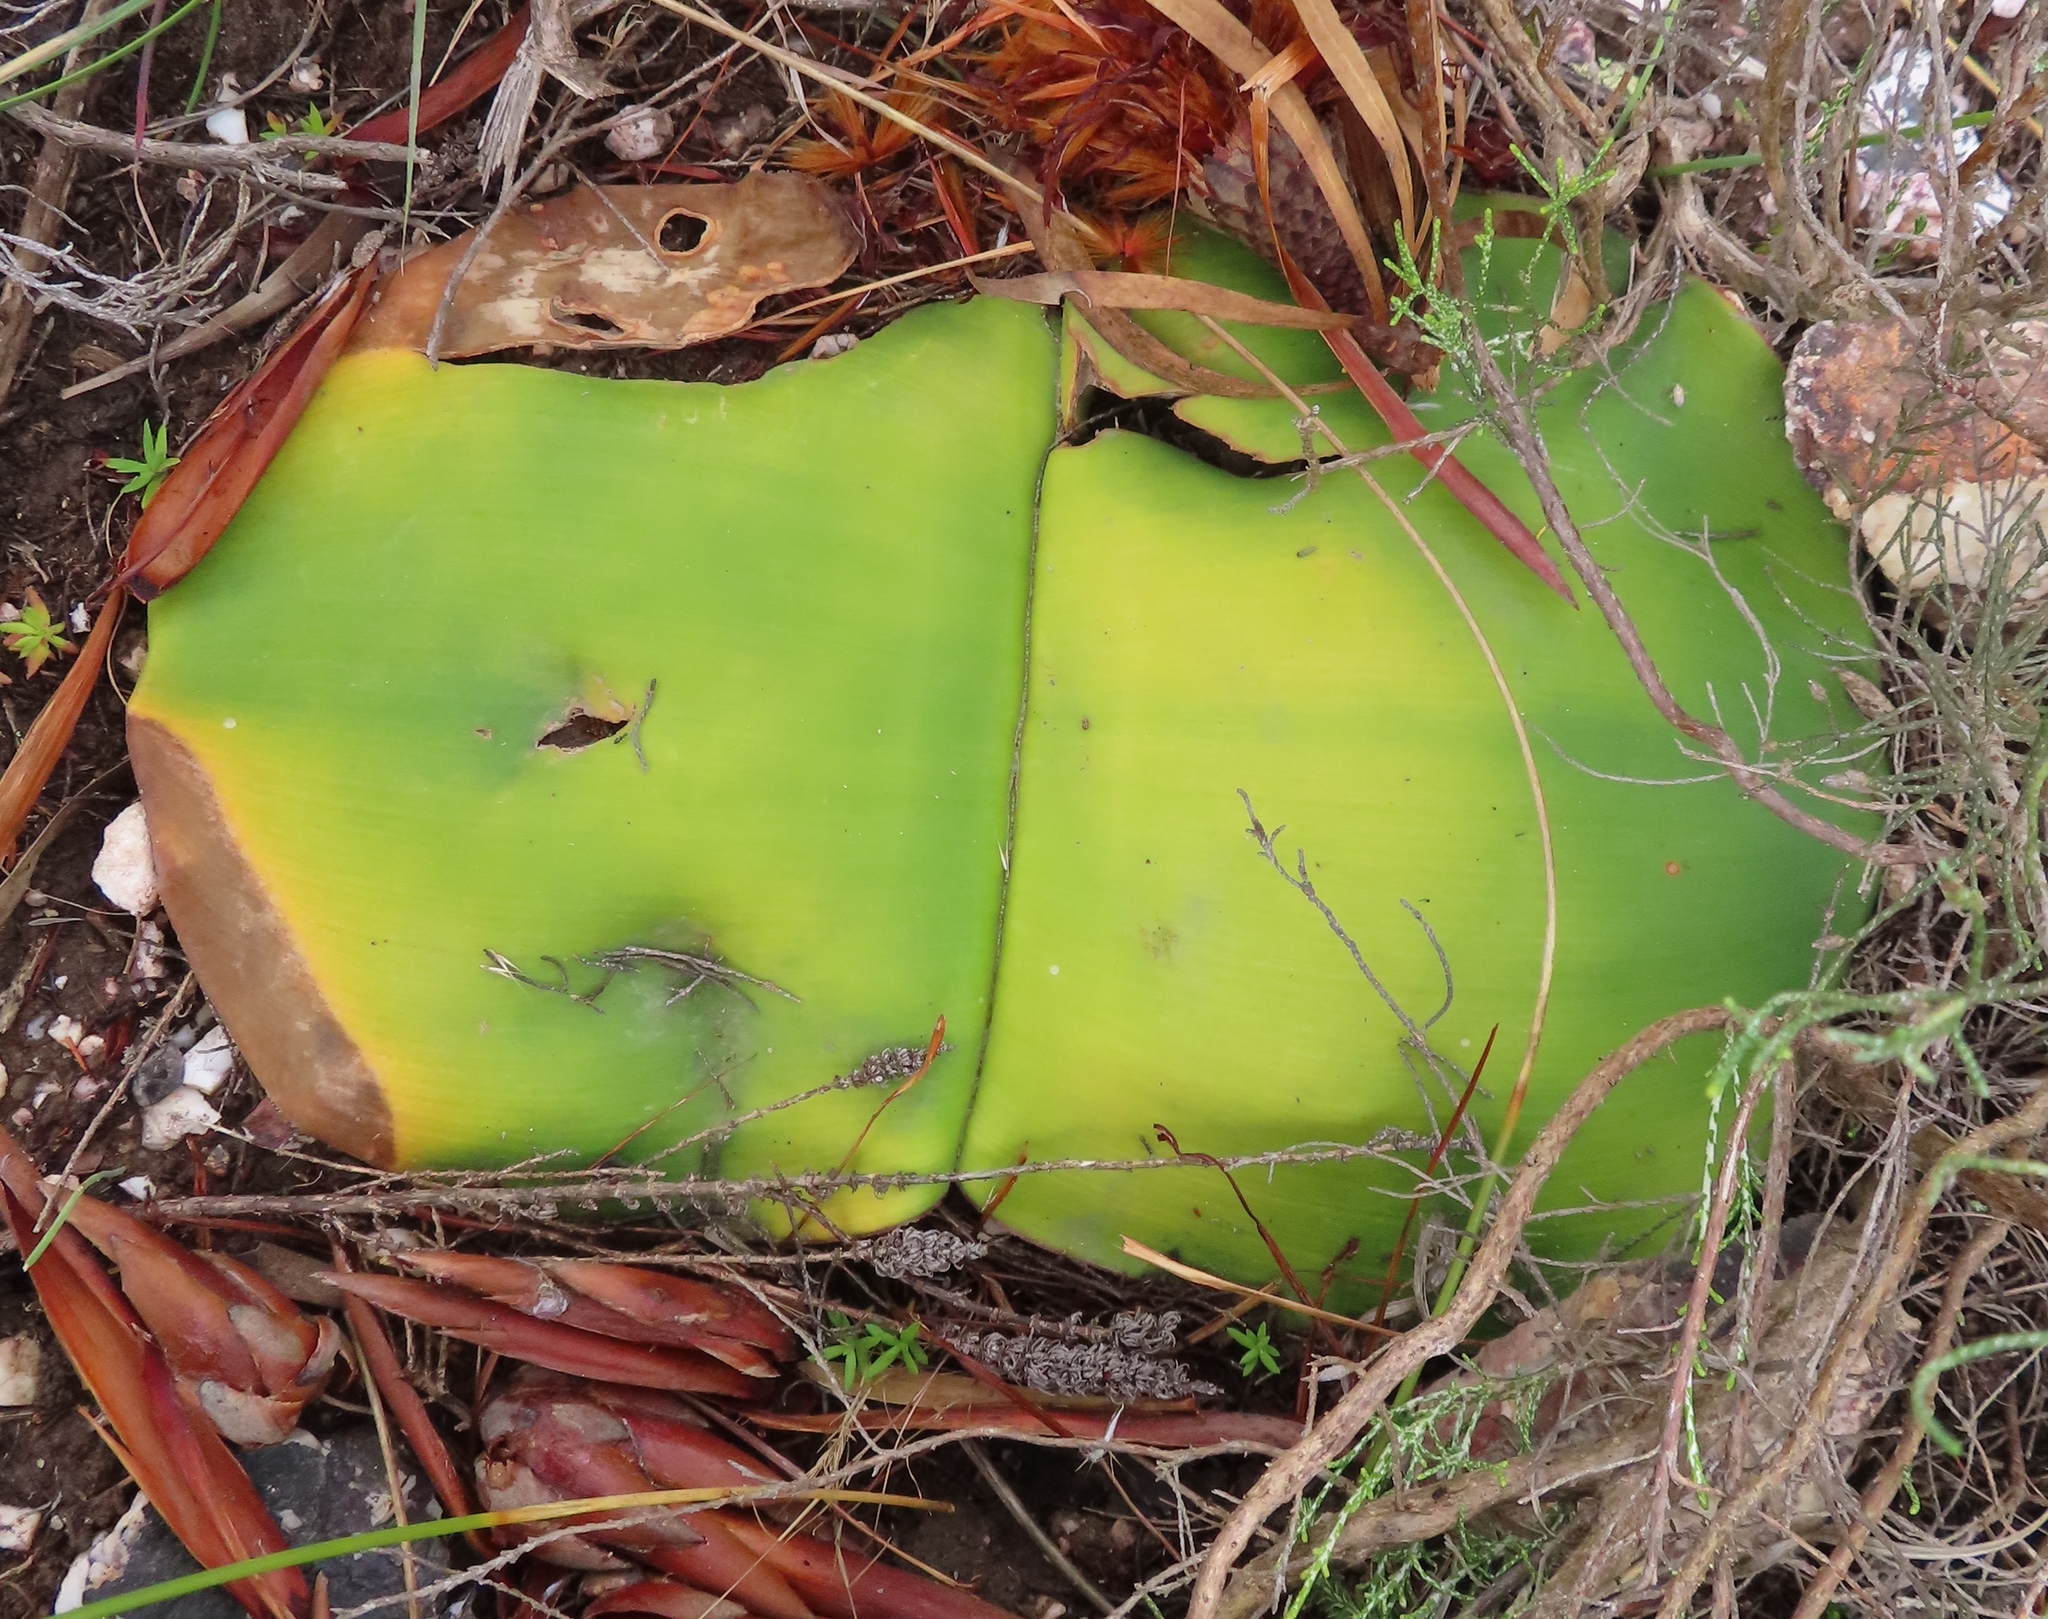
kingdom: Plantae
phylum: Tracheophyta
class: Liliopsida
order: Asparagales
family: Amaryllidaceae
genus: Haemanthus
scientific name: Haemanthus sanguineus
